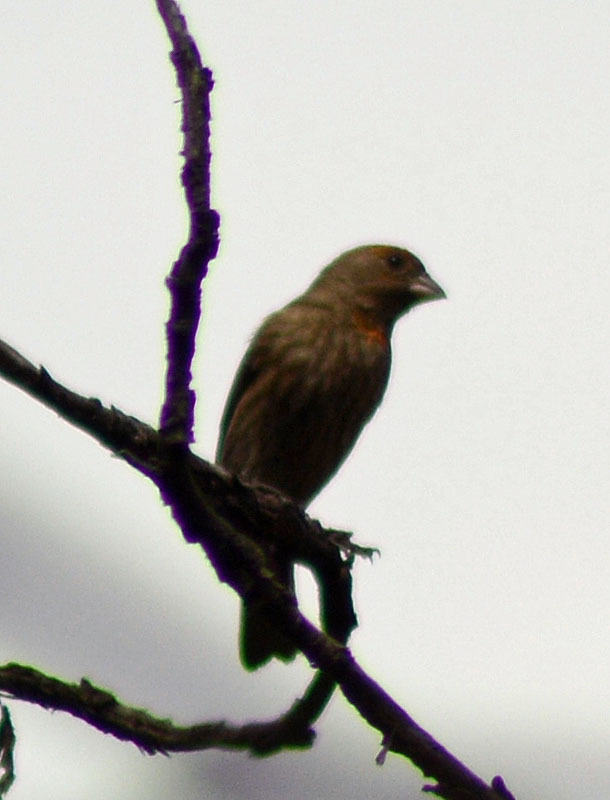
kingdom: Animalia
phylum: Chordata
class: Aves
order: Passeriformes
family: Fringillidae
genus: Haemorhous
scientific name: Haemorhous mexicanus
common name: House finch
